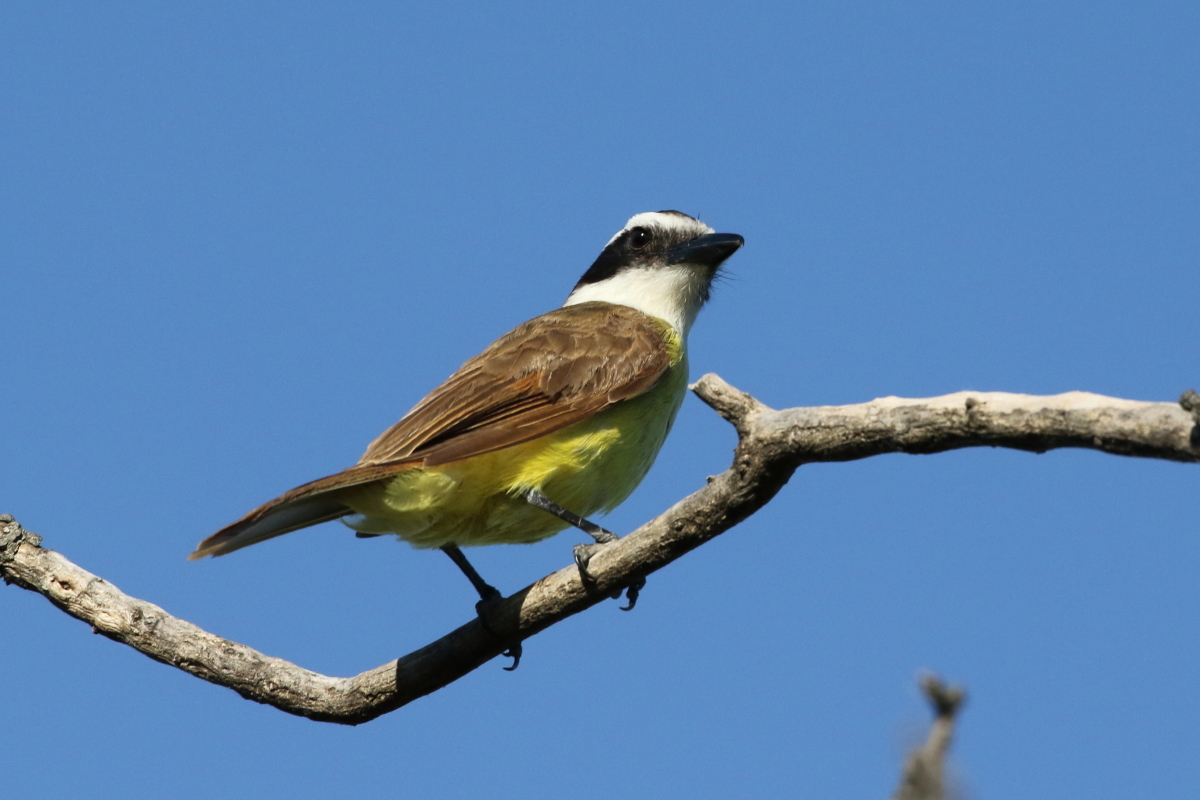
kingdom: Animalia
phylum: Chordata
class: Aves
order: Passeriformes
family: Tyrannidae
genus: Pitangus
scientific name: Pitangus sulphuratus
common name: Great kiskadee
